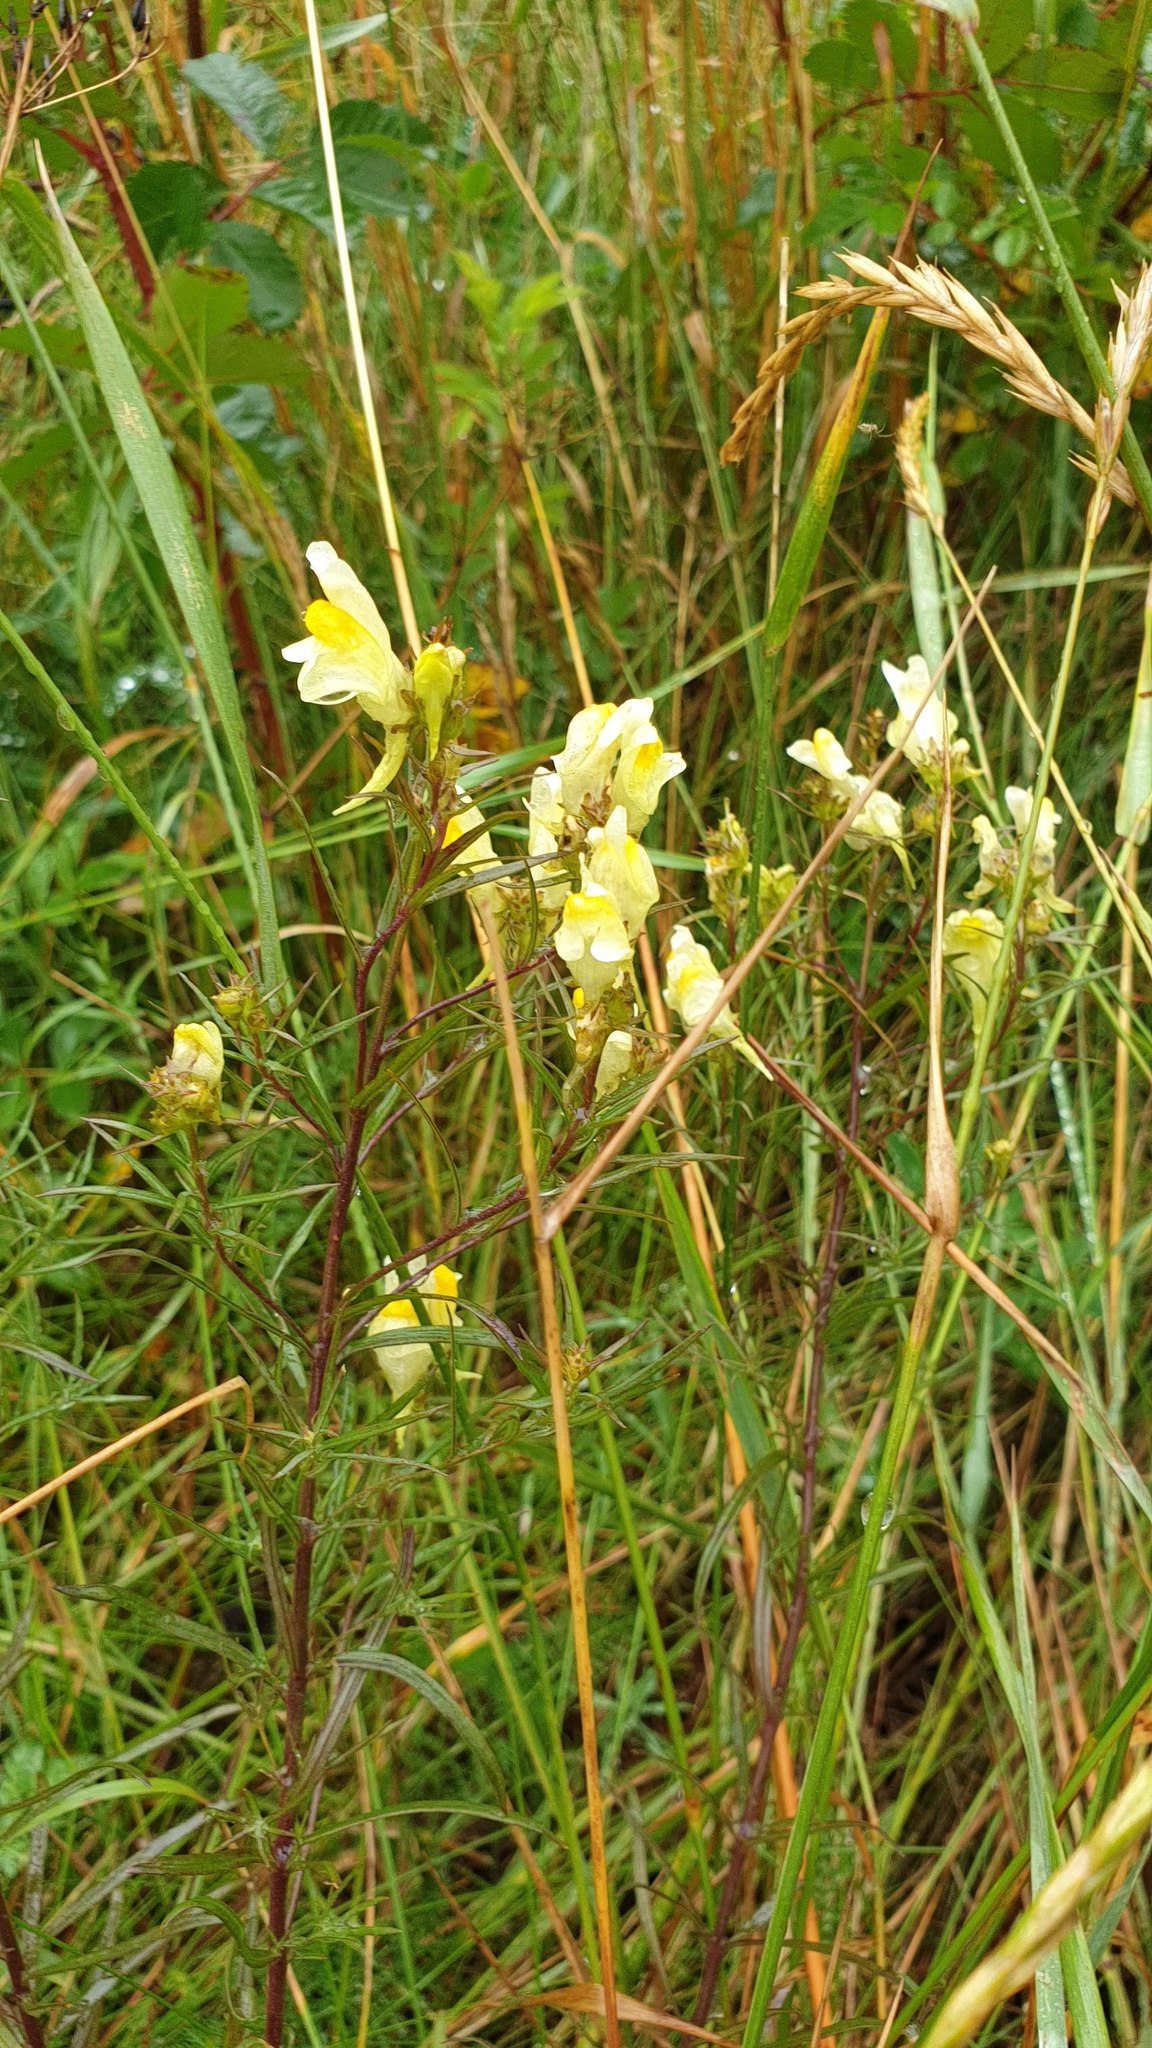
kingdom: Plantae
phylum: Tracheophyta
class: Magnoliopsida
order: Lamiales
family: Plantaginaceae
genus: Linaria
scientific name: Linaria vulgaris
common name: Butter and eggs
